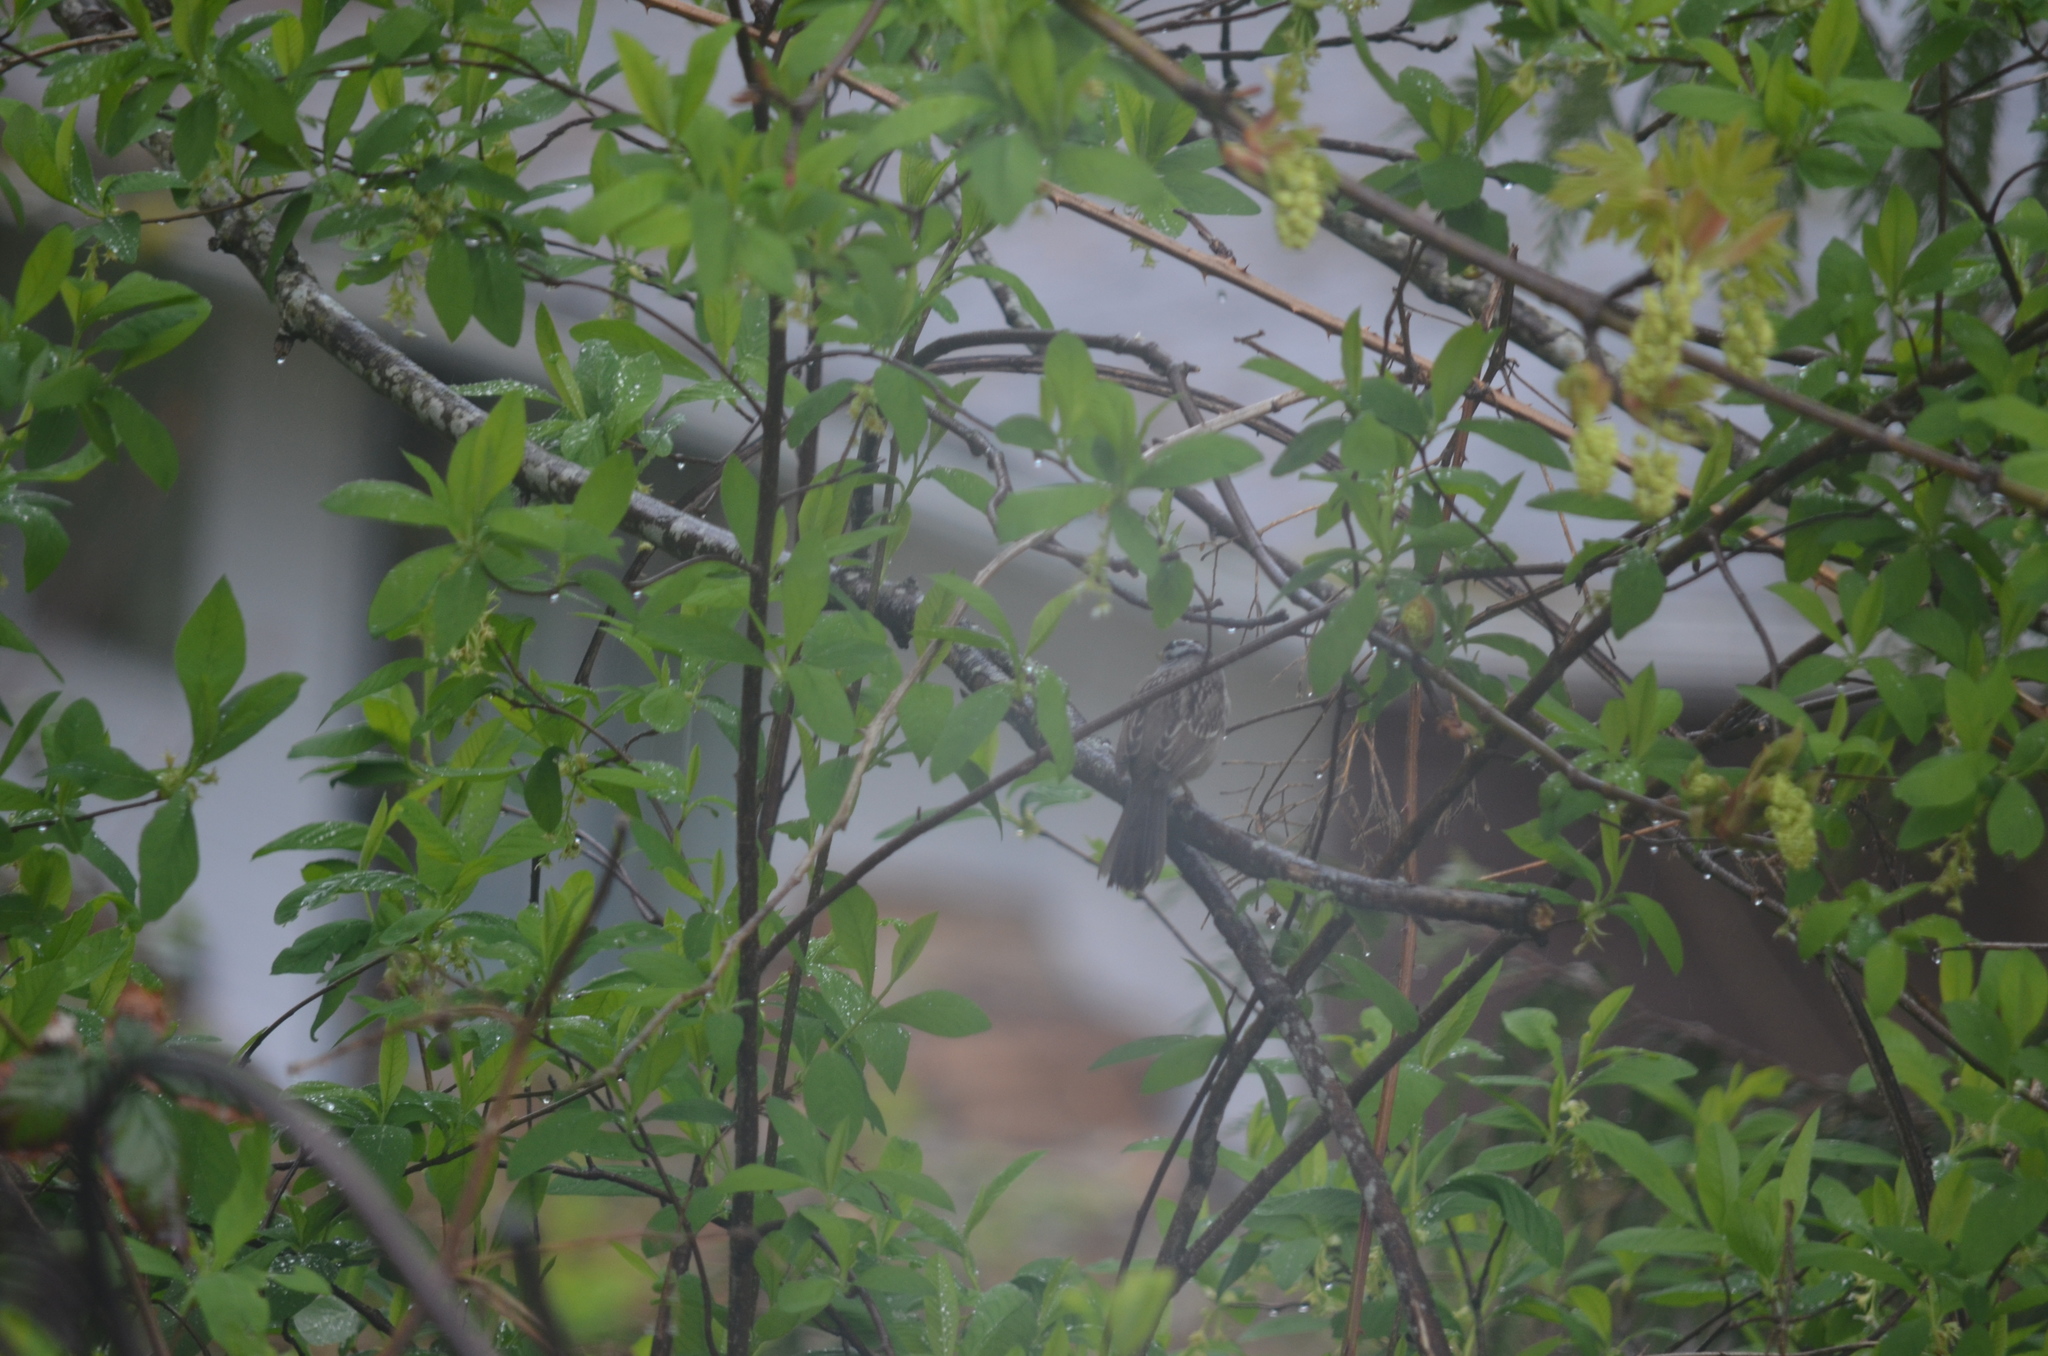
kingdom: Animalia
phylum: Chordata
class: Aves
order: Passeriformes
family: Passerellidae
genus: Zonotrichia
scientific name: Zonotrichia leucophrys
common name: White-crowned sparrow
